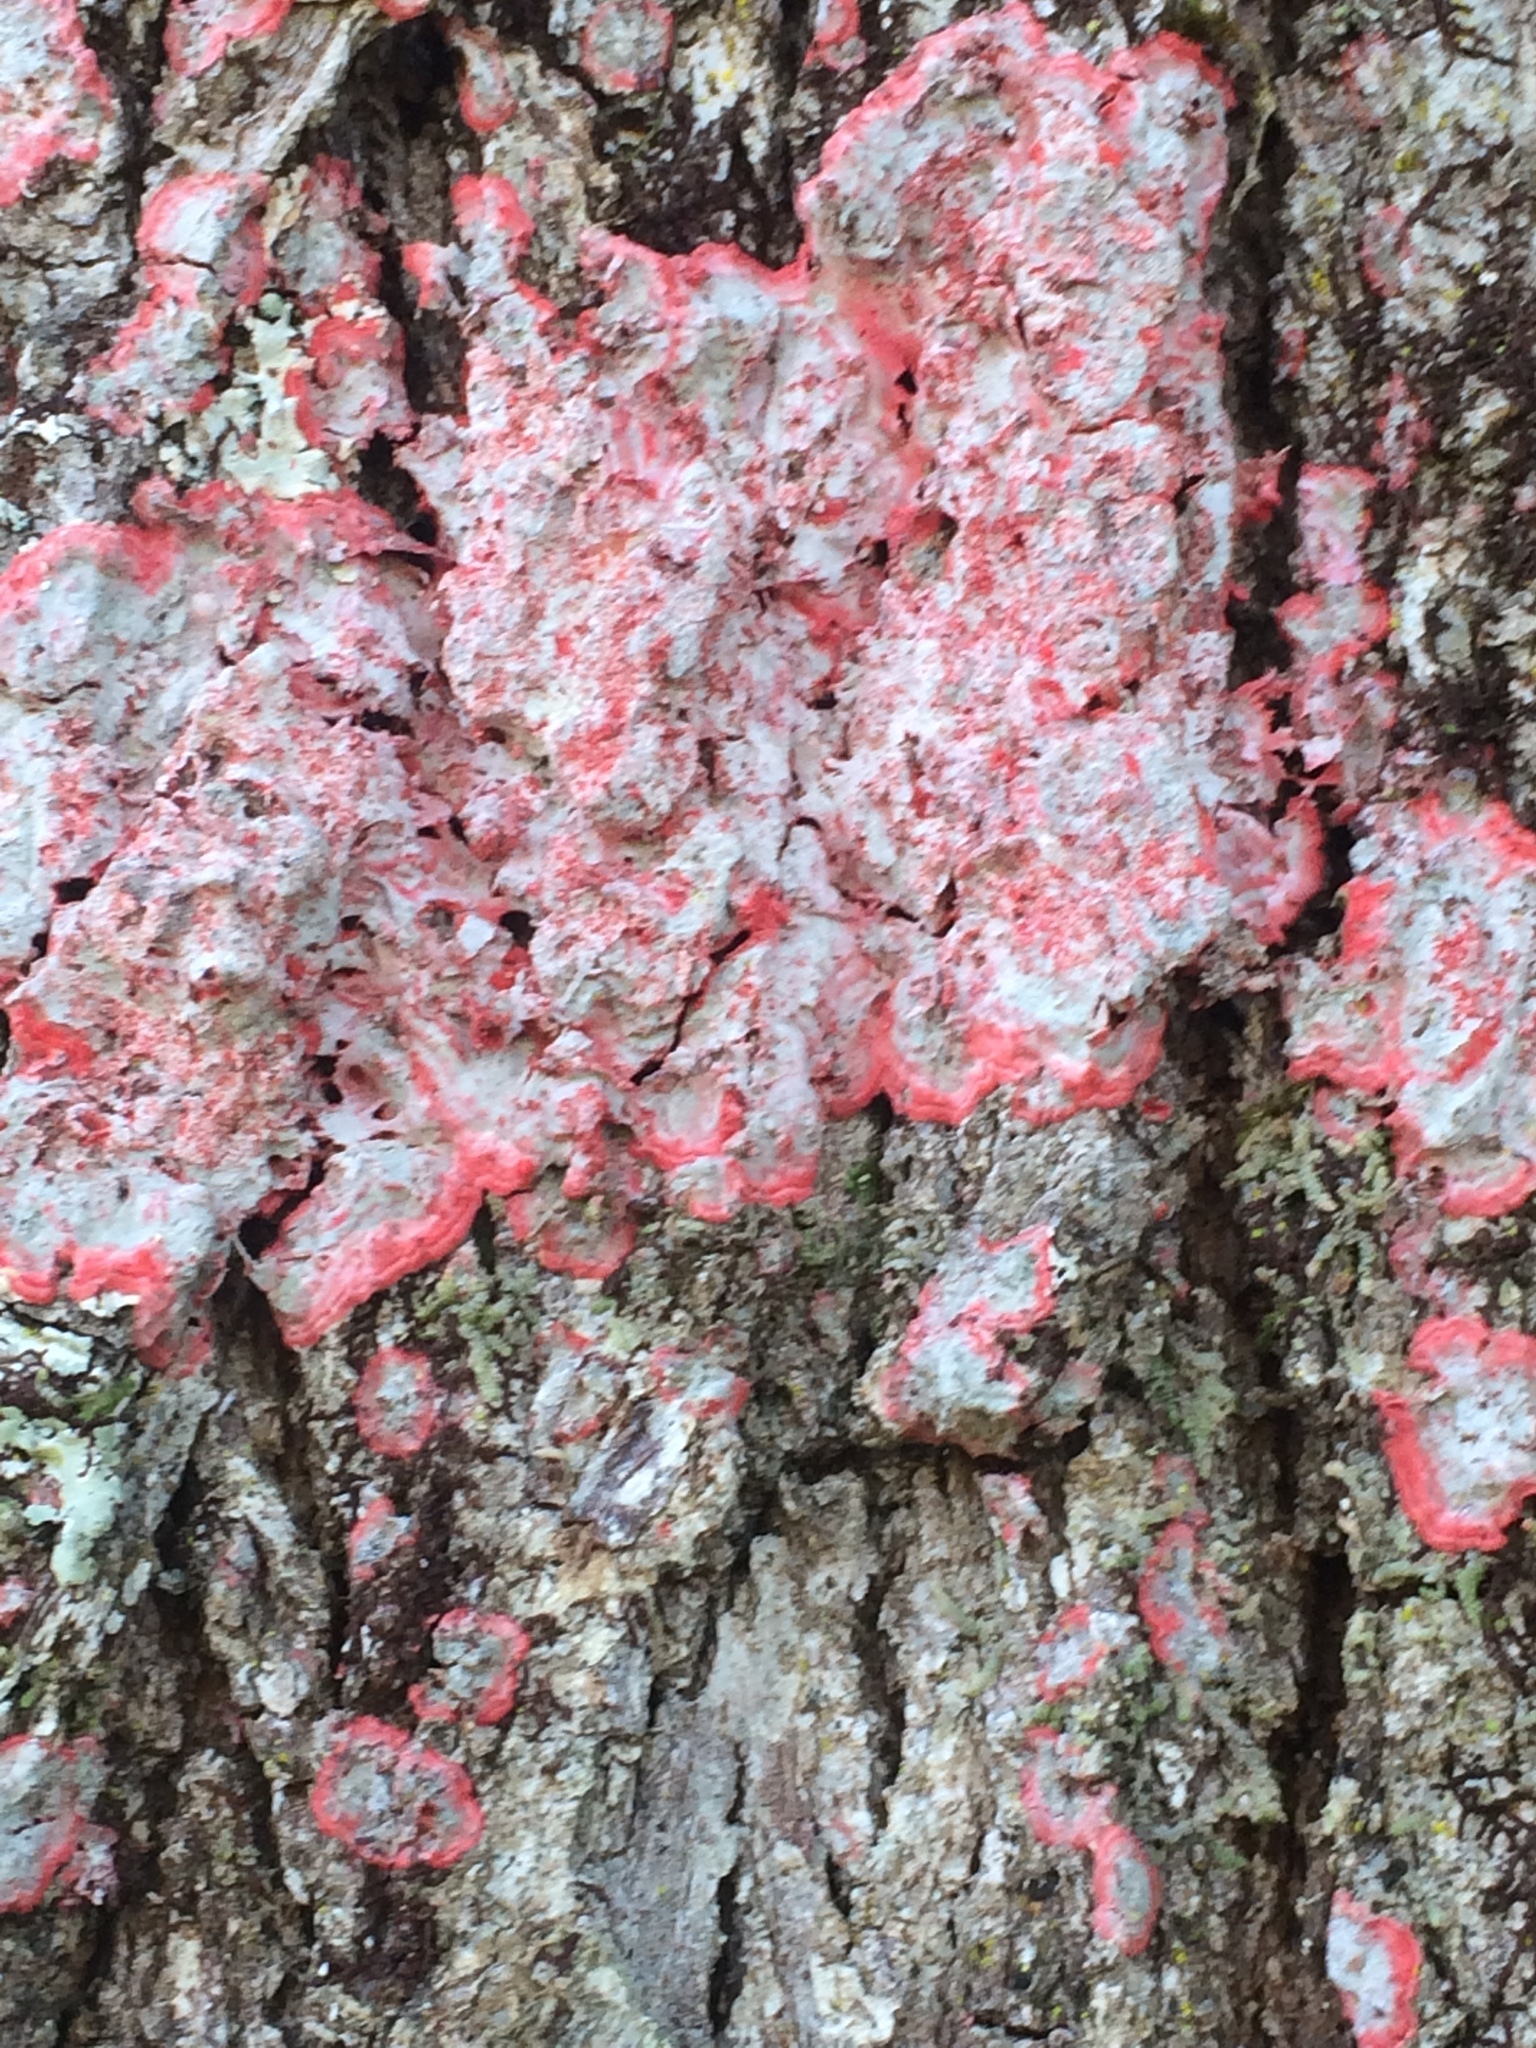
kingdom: Fungi
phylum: Ascomycota
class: Arthoniomycetes
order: Arthoniales
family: Arthoniaceae
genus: Herpothallon
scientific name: Herpothallon rubrocinctum
